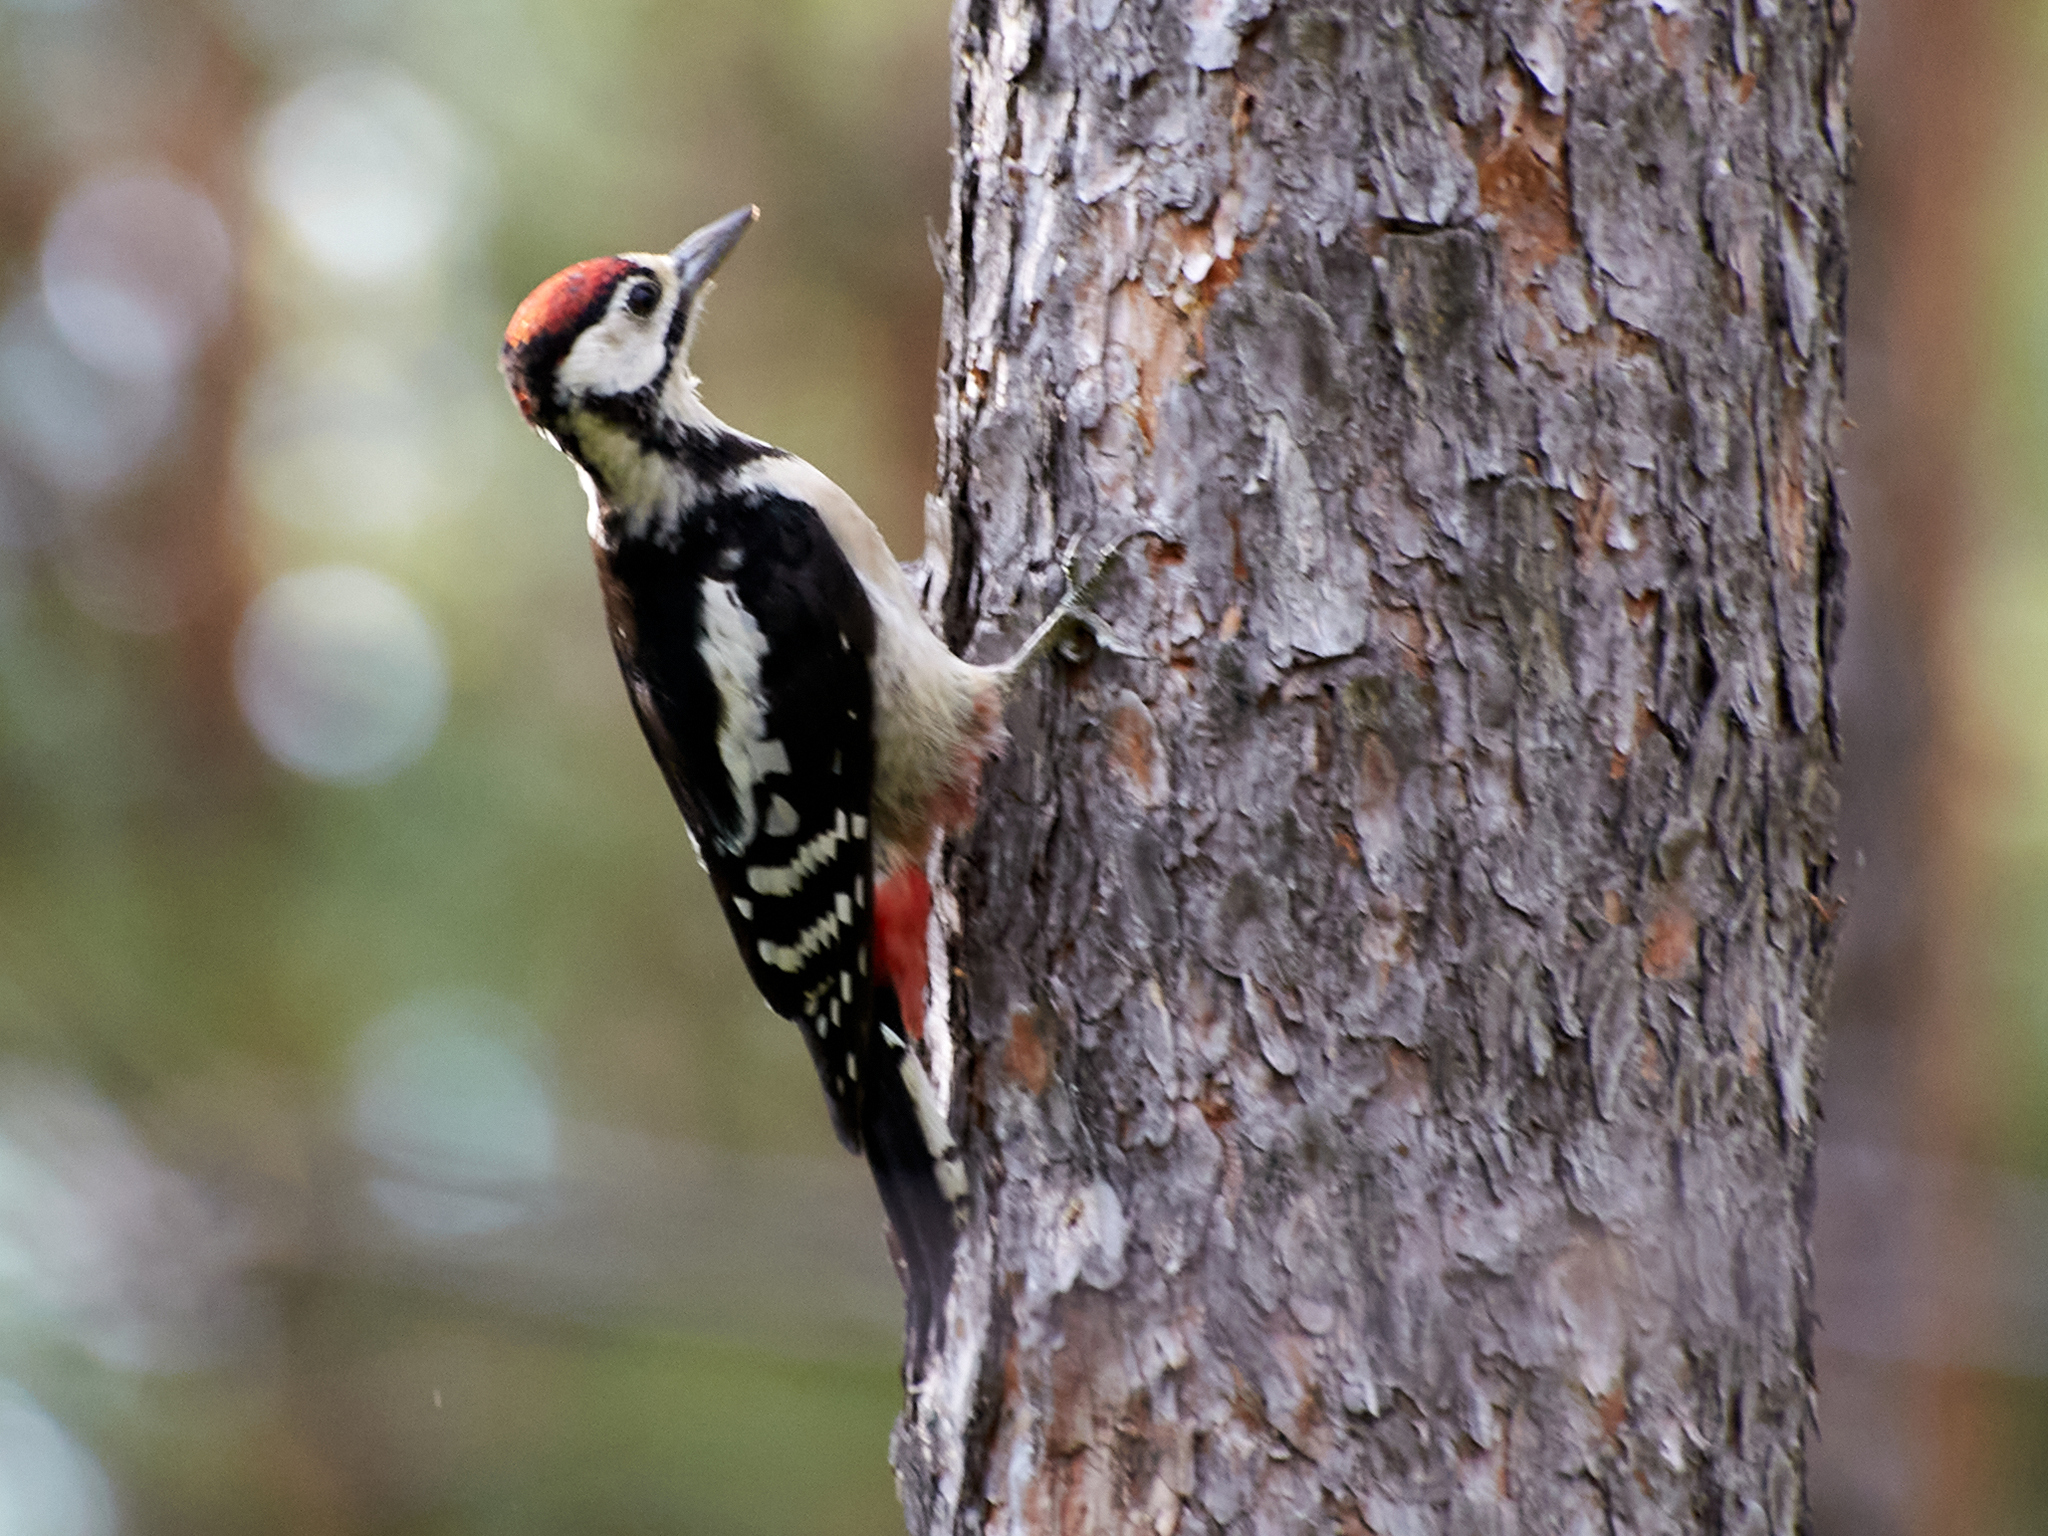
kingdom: Animalia
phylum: Chordata
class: Aves
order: Piciformes
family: Picidae
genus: Dendrocopos
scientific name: Dendrocopos major
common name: Great spotted woodpecker
